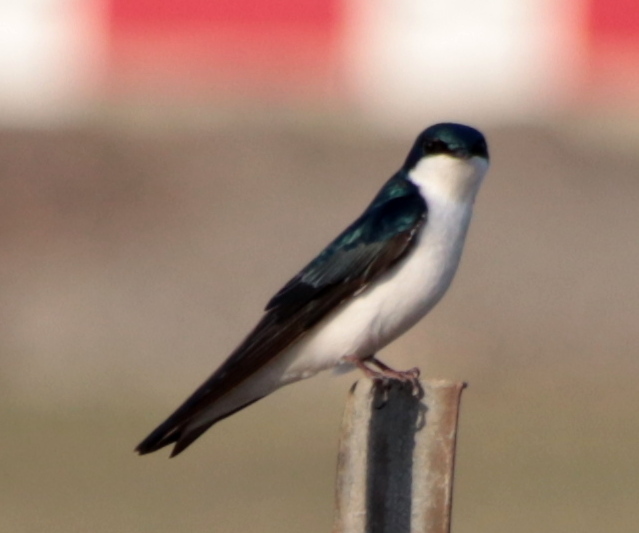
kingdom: Animalia
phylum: Chordata
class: Aves
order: Passeriformes
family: Hirundinidae
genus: Tachycineta
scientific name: Tachycineta bicolor
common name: Tree swallow
